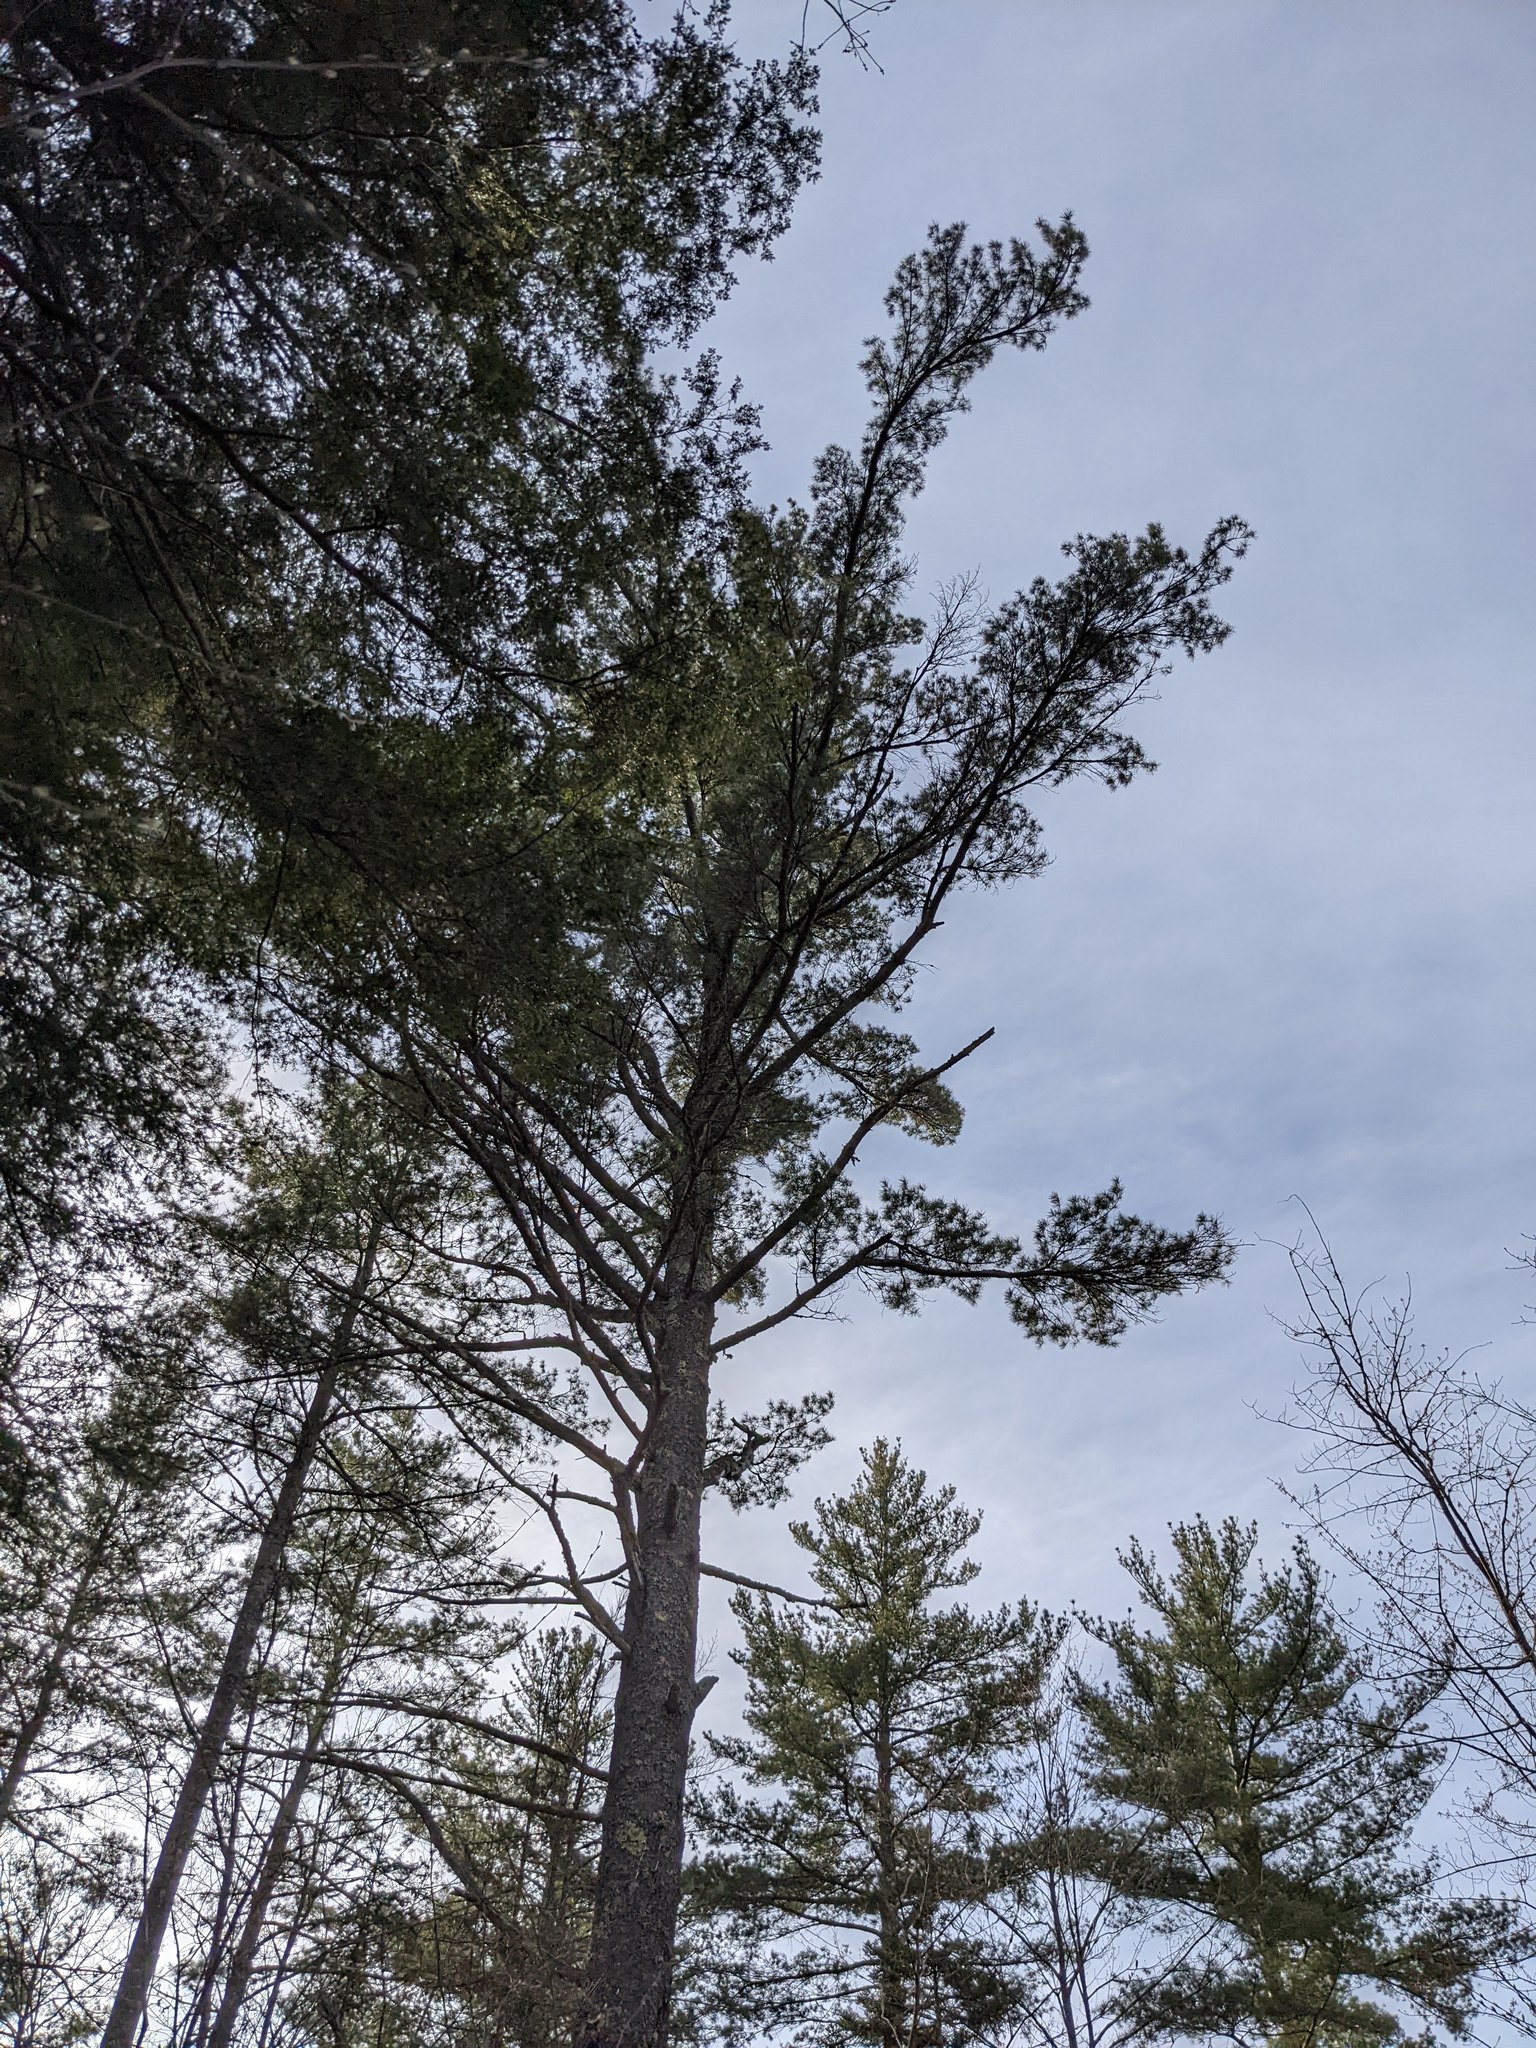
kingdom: Plantae
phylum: Tracheophyta
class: Pinopsida
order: Pinales
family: Pinaceae
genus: Pinus
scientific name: Pinus strobus
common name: Weymouth pine
